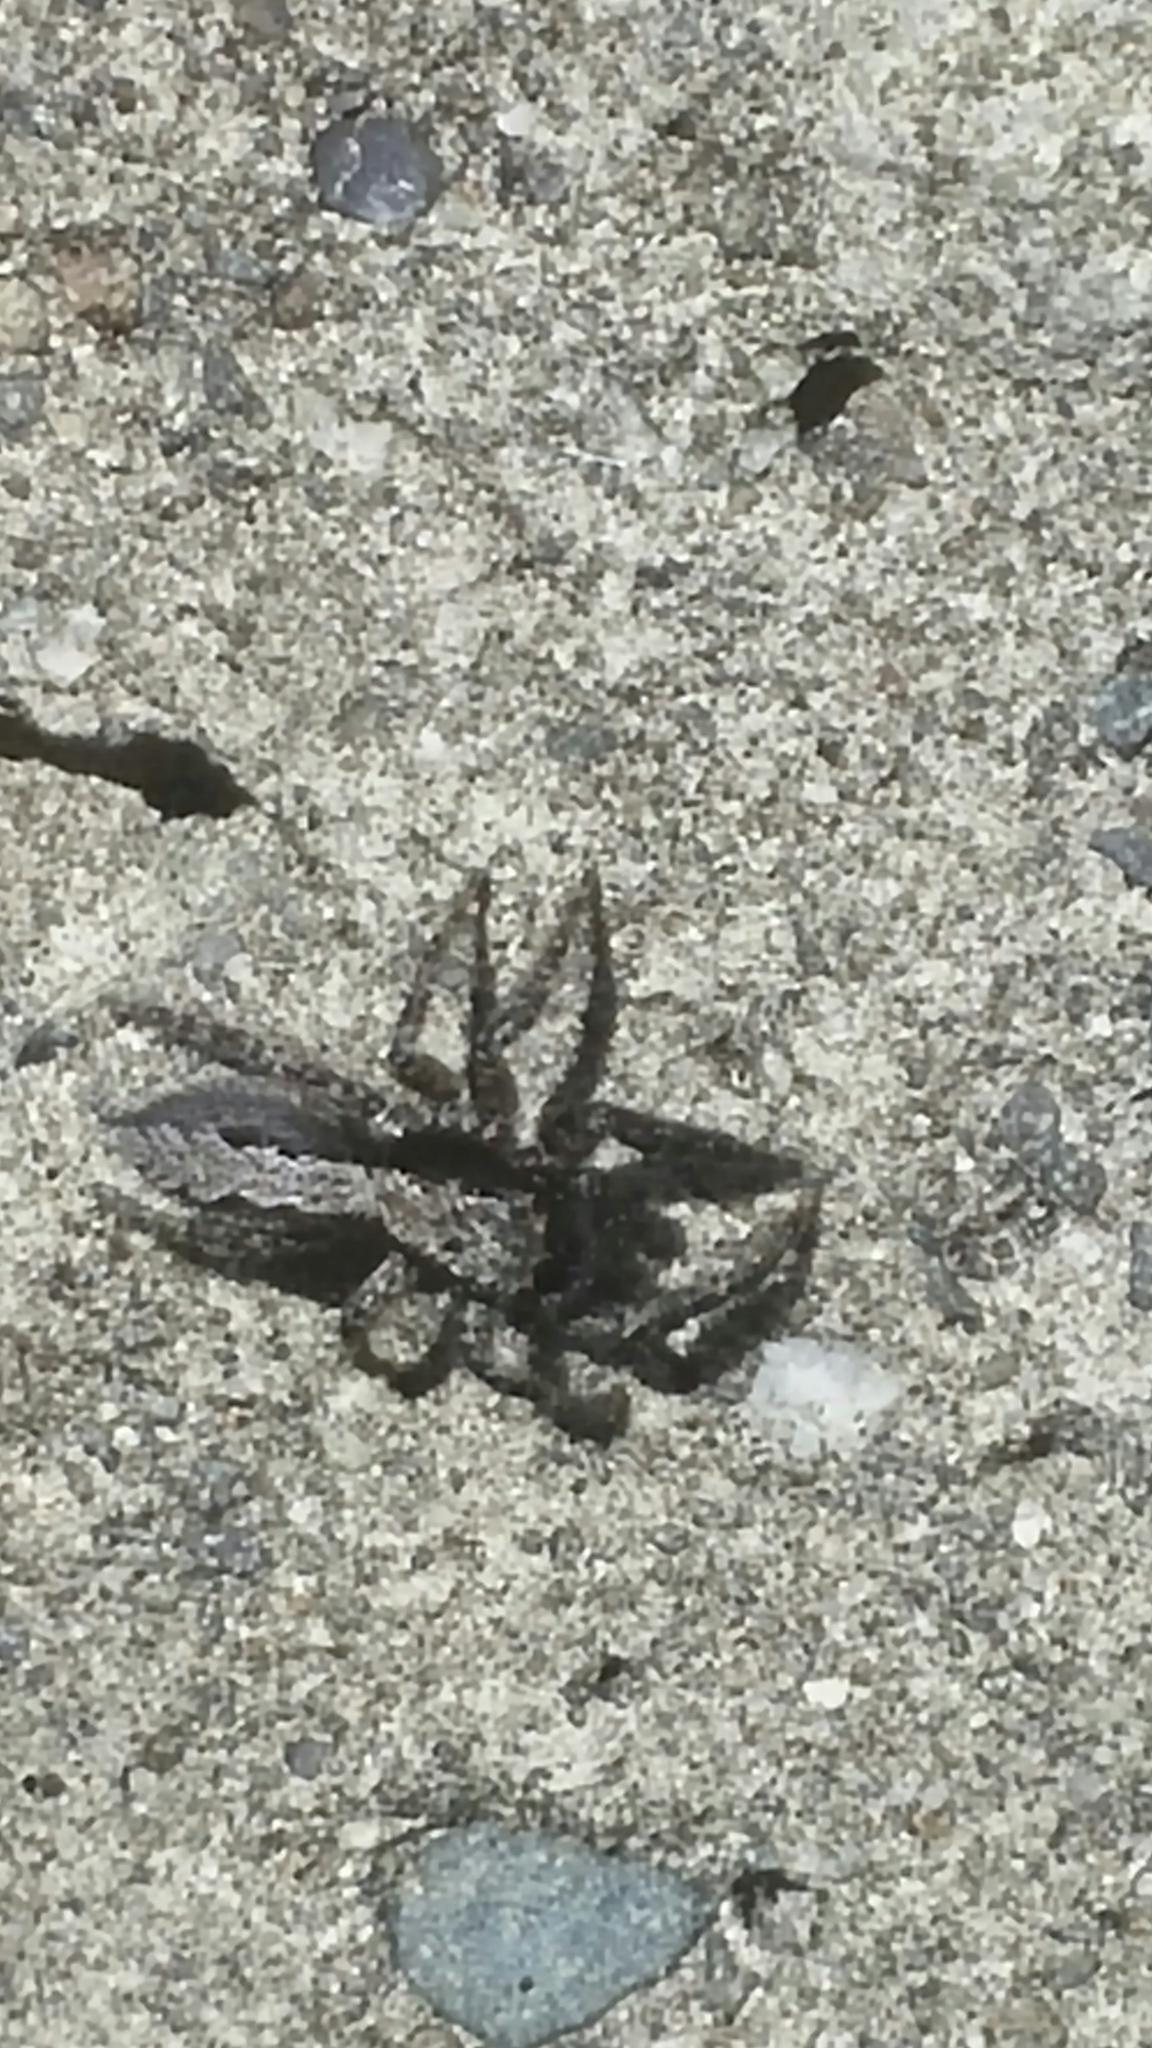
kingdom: Animalia
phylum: Arthropoda
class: Arachnida
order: Araneae
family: Salticidae
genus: Platycryptus
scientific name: Platycryptus californicus
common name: Jumping spiders
